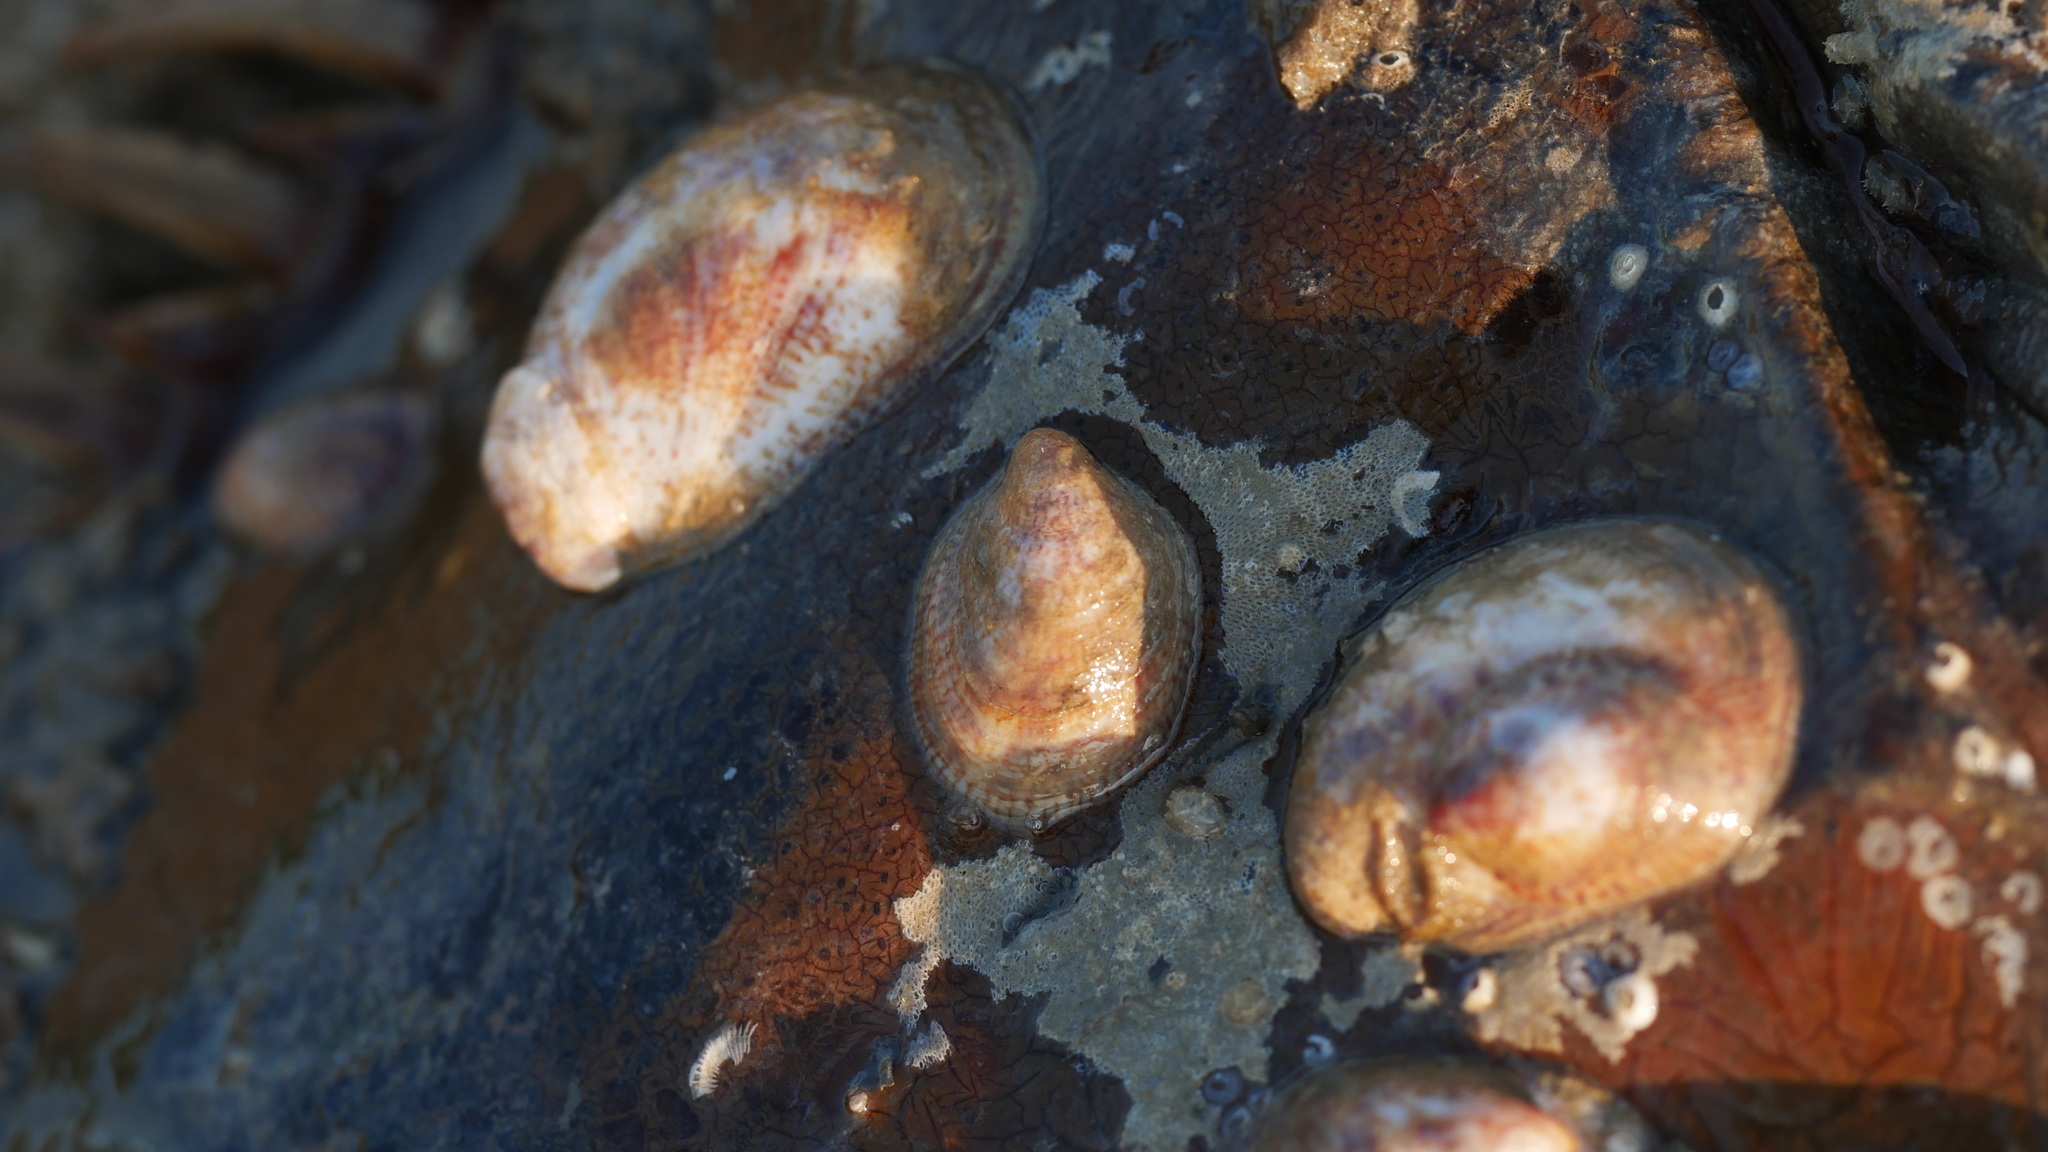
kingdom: Animalia
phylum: Mollusca
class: Gastropoda
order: Littorinimorpha
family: Calyptraeidae
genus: Crepidula
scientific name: Crepidula fornicata
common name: Slipper limpet
